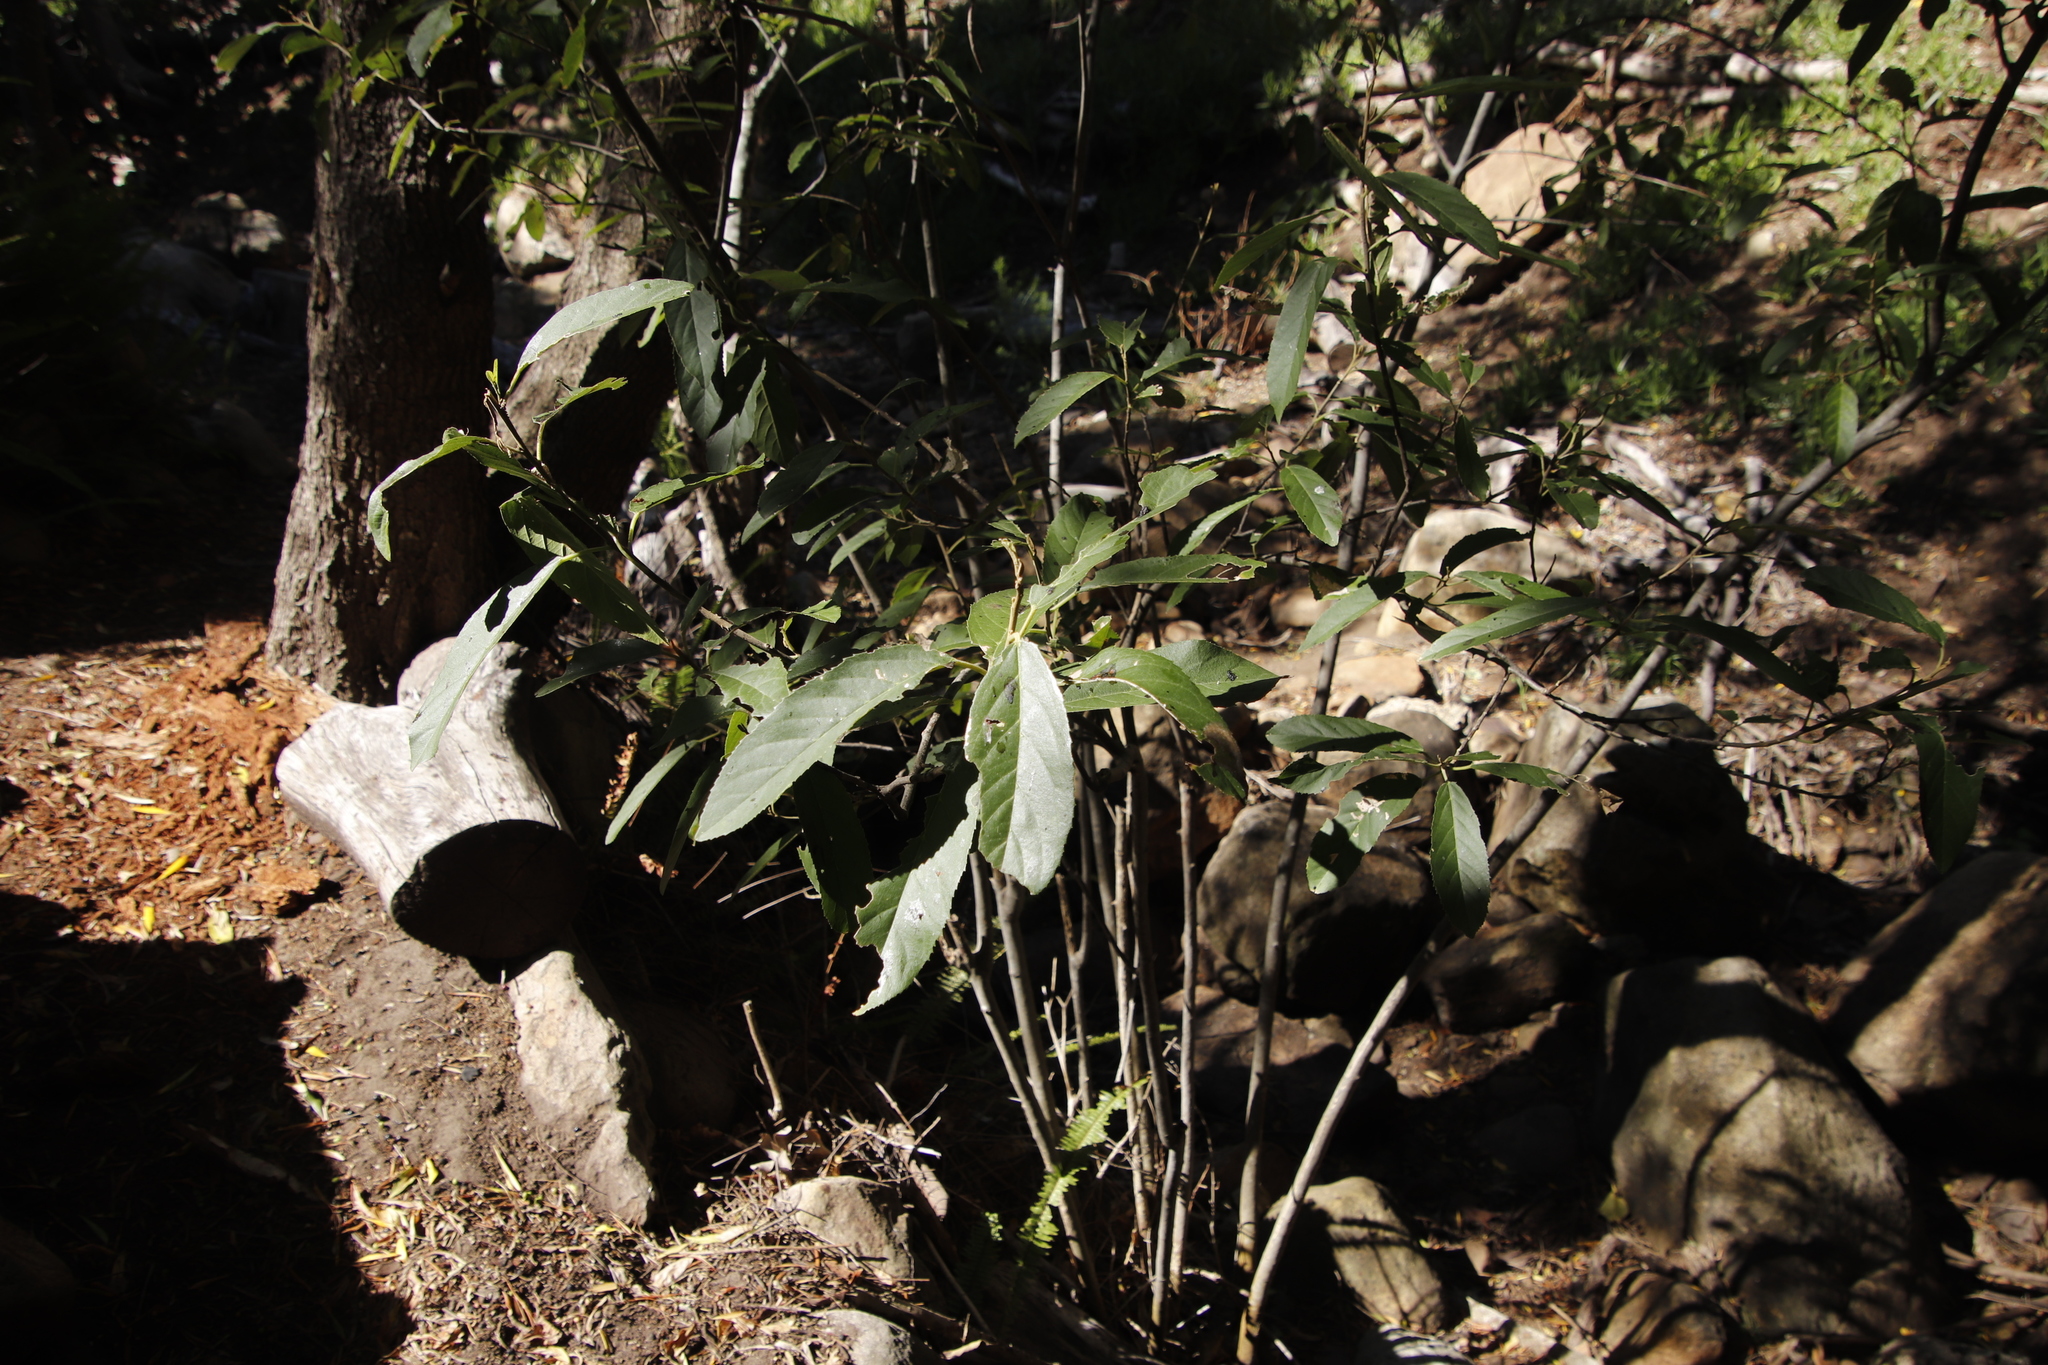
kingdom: Plantae
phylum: Tracheophyta
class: Magnoliopsida
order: Malpighiales
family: Achariaceae
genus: Kiggelaria
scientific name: Kiggelaria africana
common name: Wild peach
